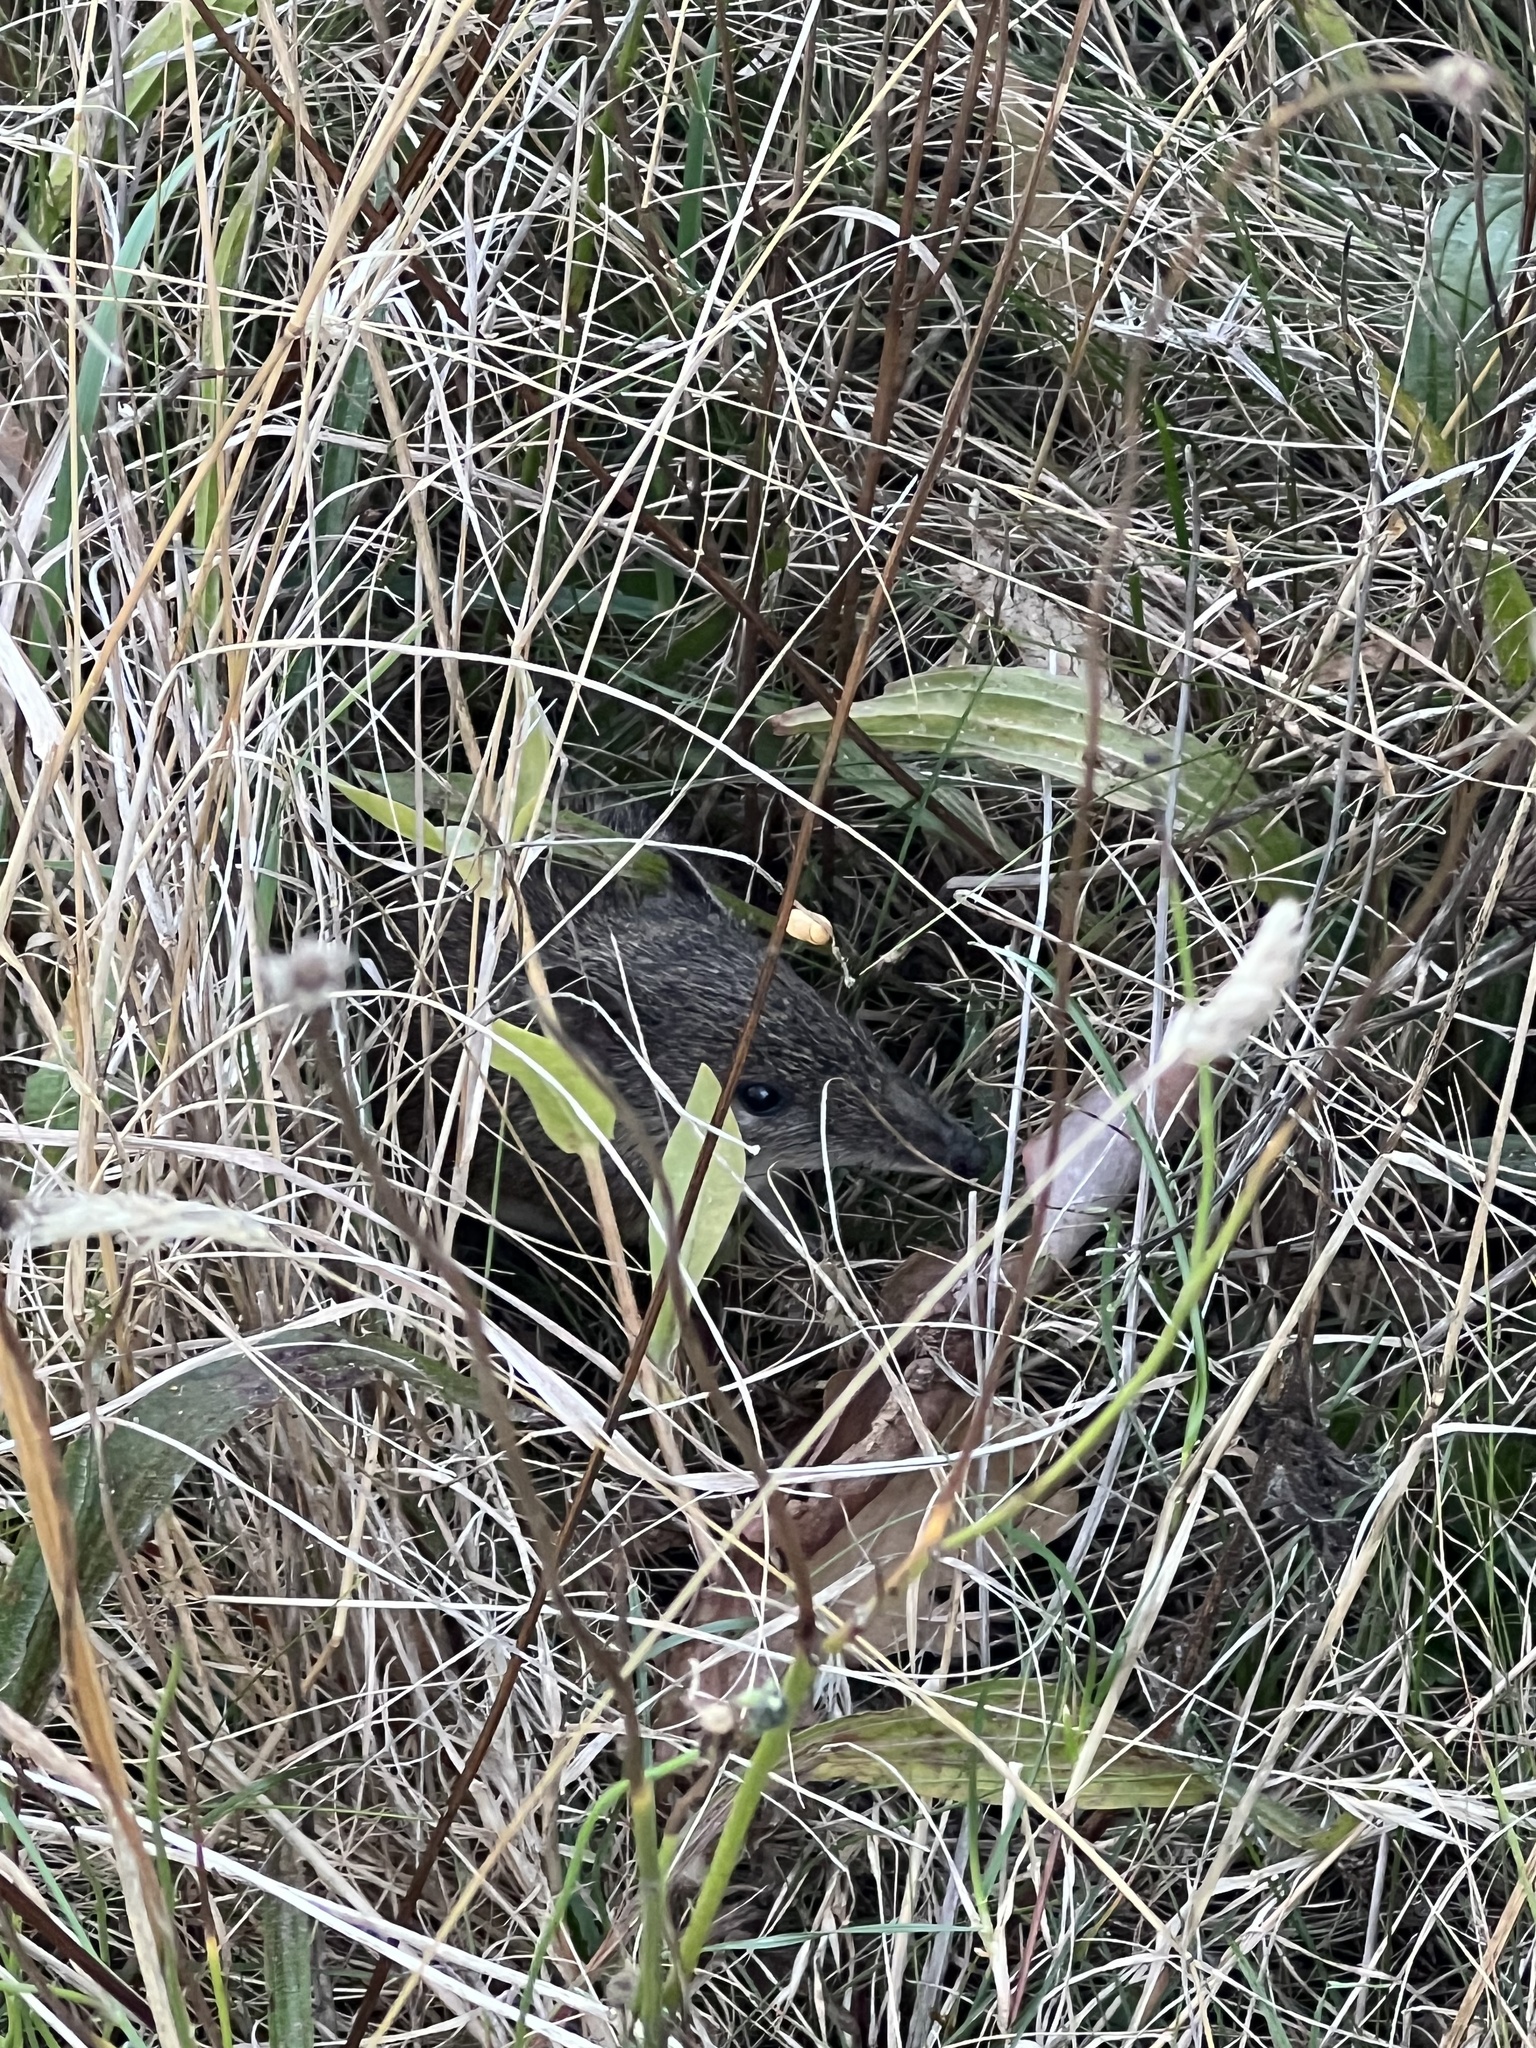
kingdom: Animalia
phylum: Chordata
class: Mammalia
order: Peramelemorphia
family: Peramelidae
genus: Isoodon
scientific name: Isoodon obesulus
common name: Southern brown bandicoot
